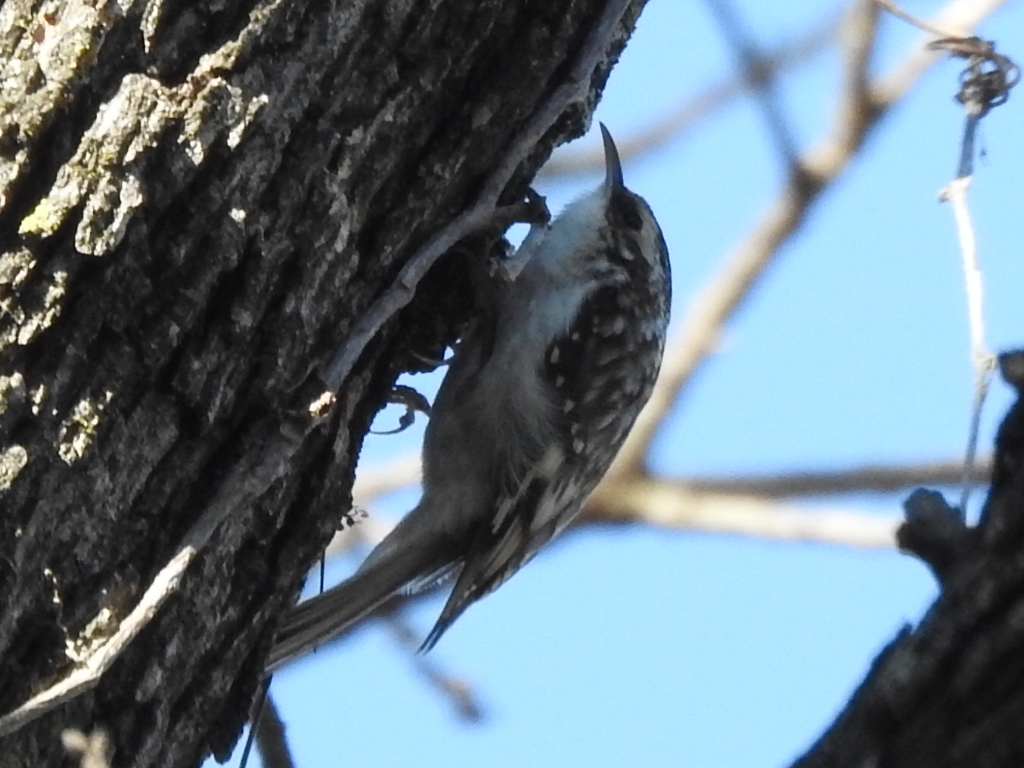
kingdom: Animalia
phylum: Chordata
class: Aves
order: Passeriformes
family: Certhiidae
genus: Certhia
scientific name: Certhia americana
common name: Brown creeper
